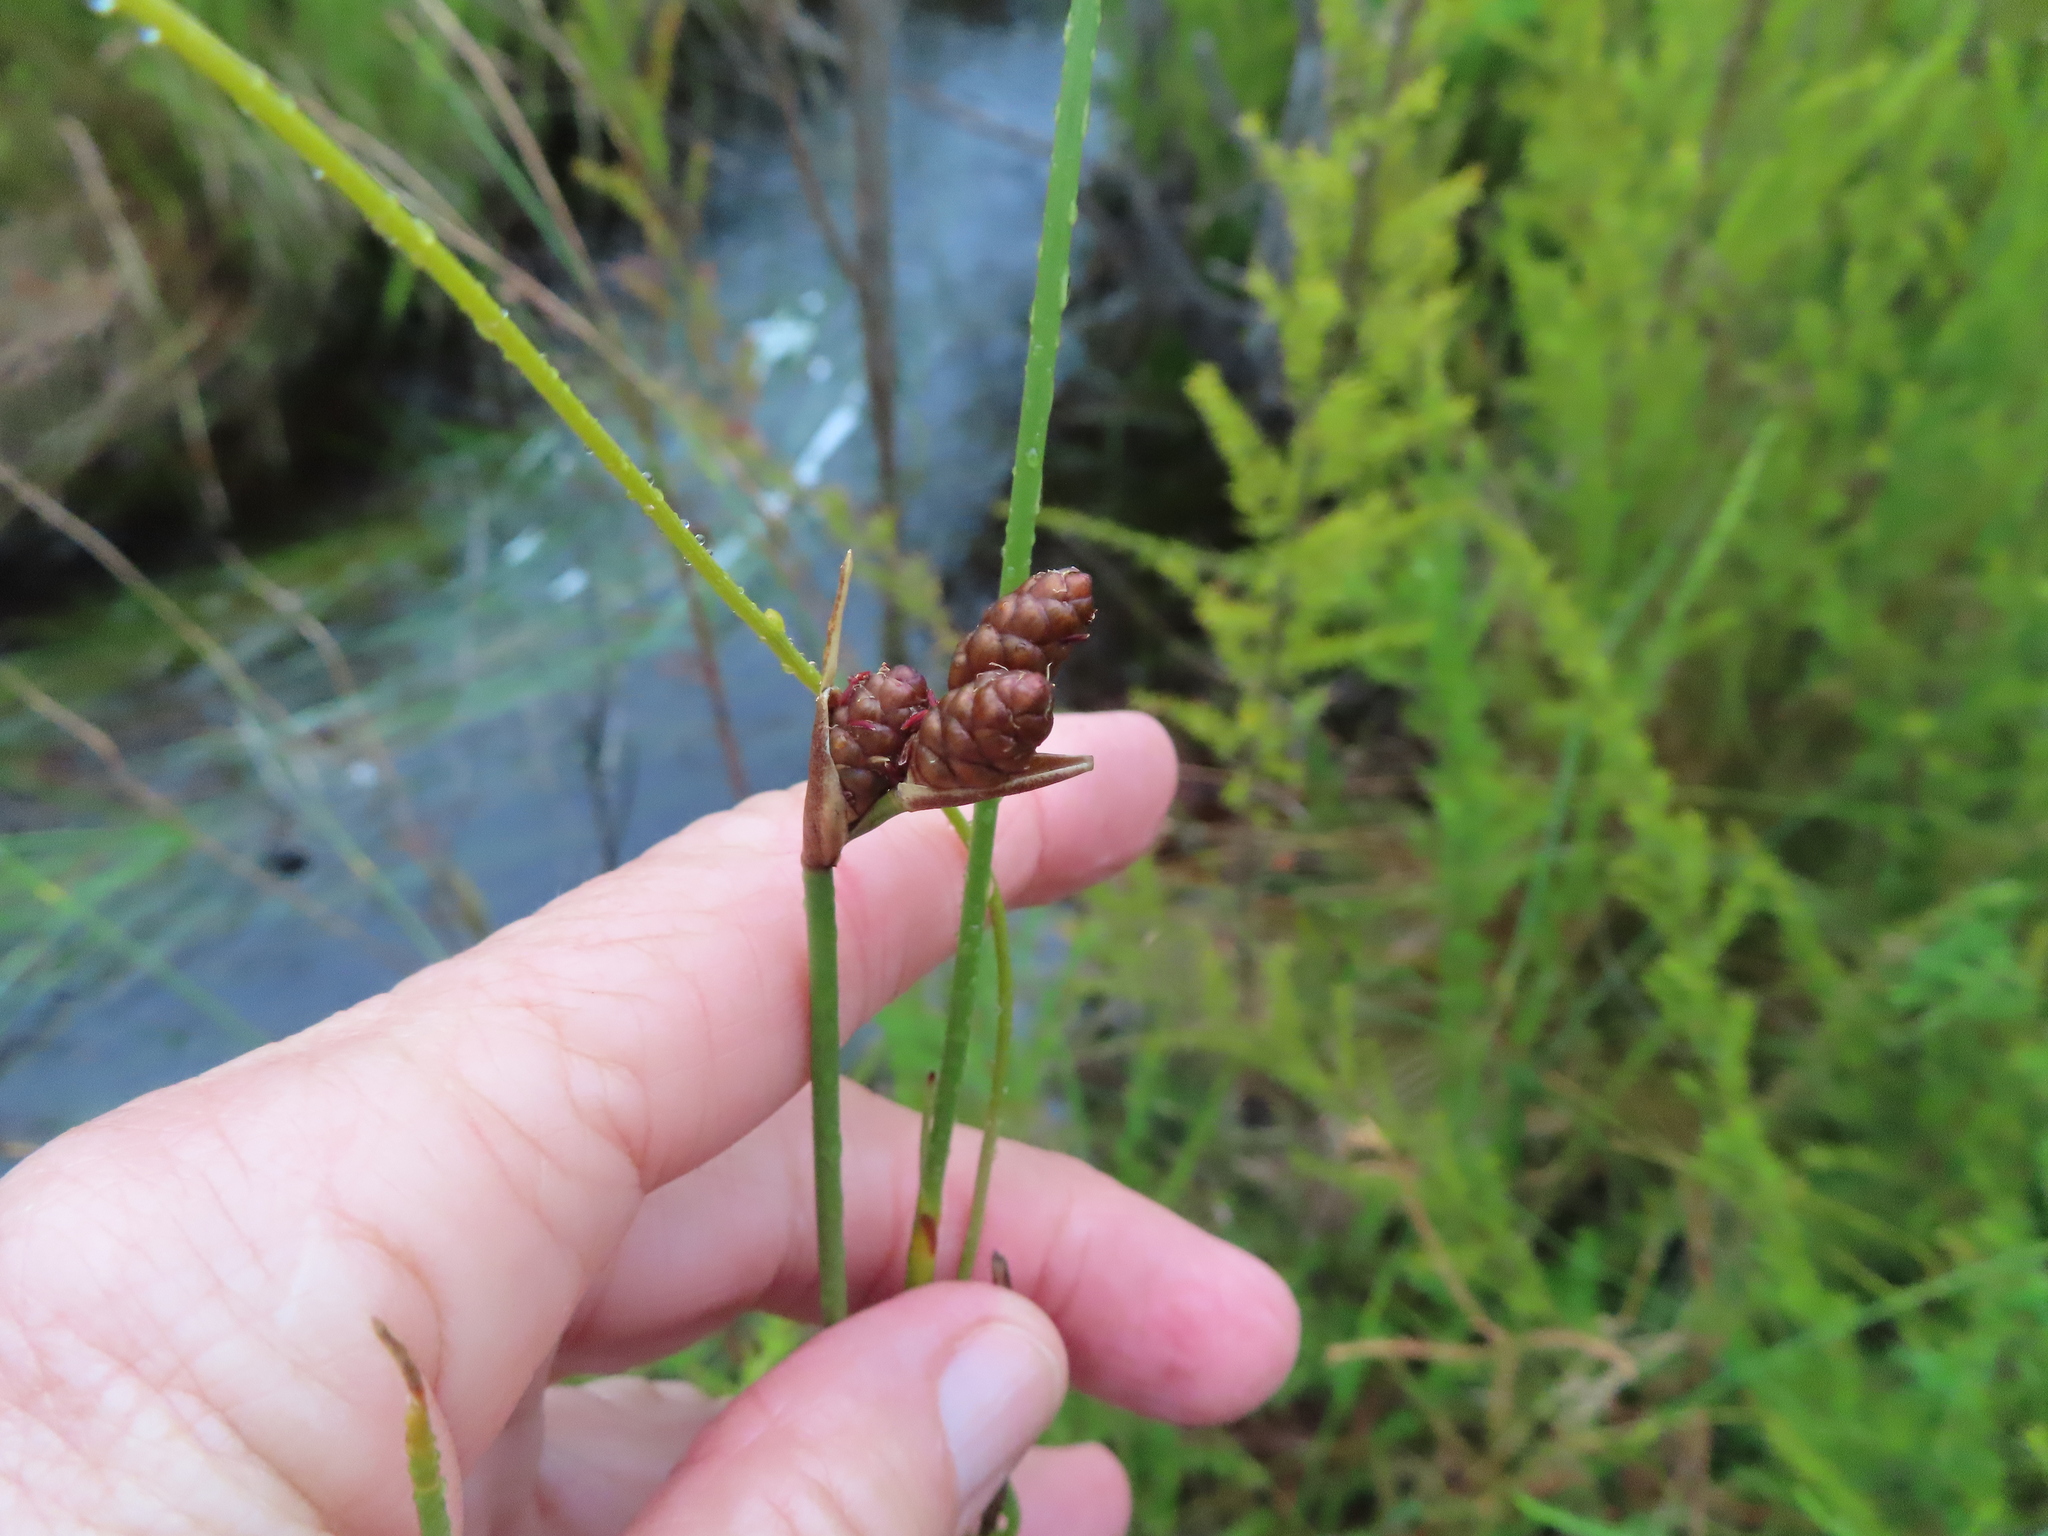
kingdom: Plantae
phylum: Tracheophyta
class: Liliopsida
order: Poales
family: Restionaceae
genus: Nevillea
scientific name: Nevillea obtusissimus
